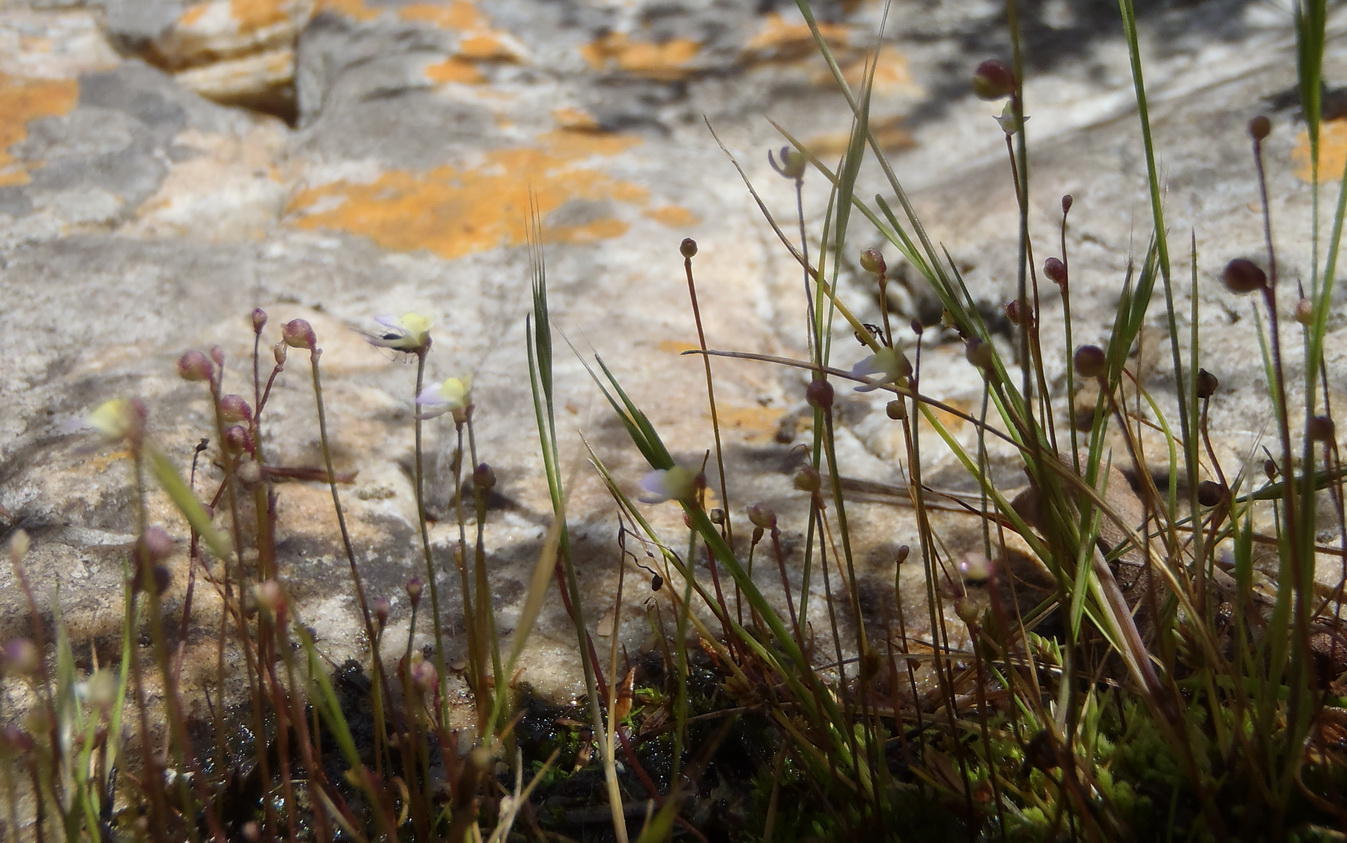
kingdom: Plantae
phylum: Tracheophyta
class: Magnoliopsida
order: Lamiales
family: Lentibulariaceae
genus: Utricularia
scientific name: Utricularia bisquamata
